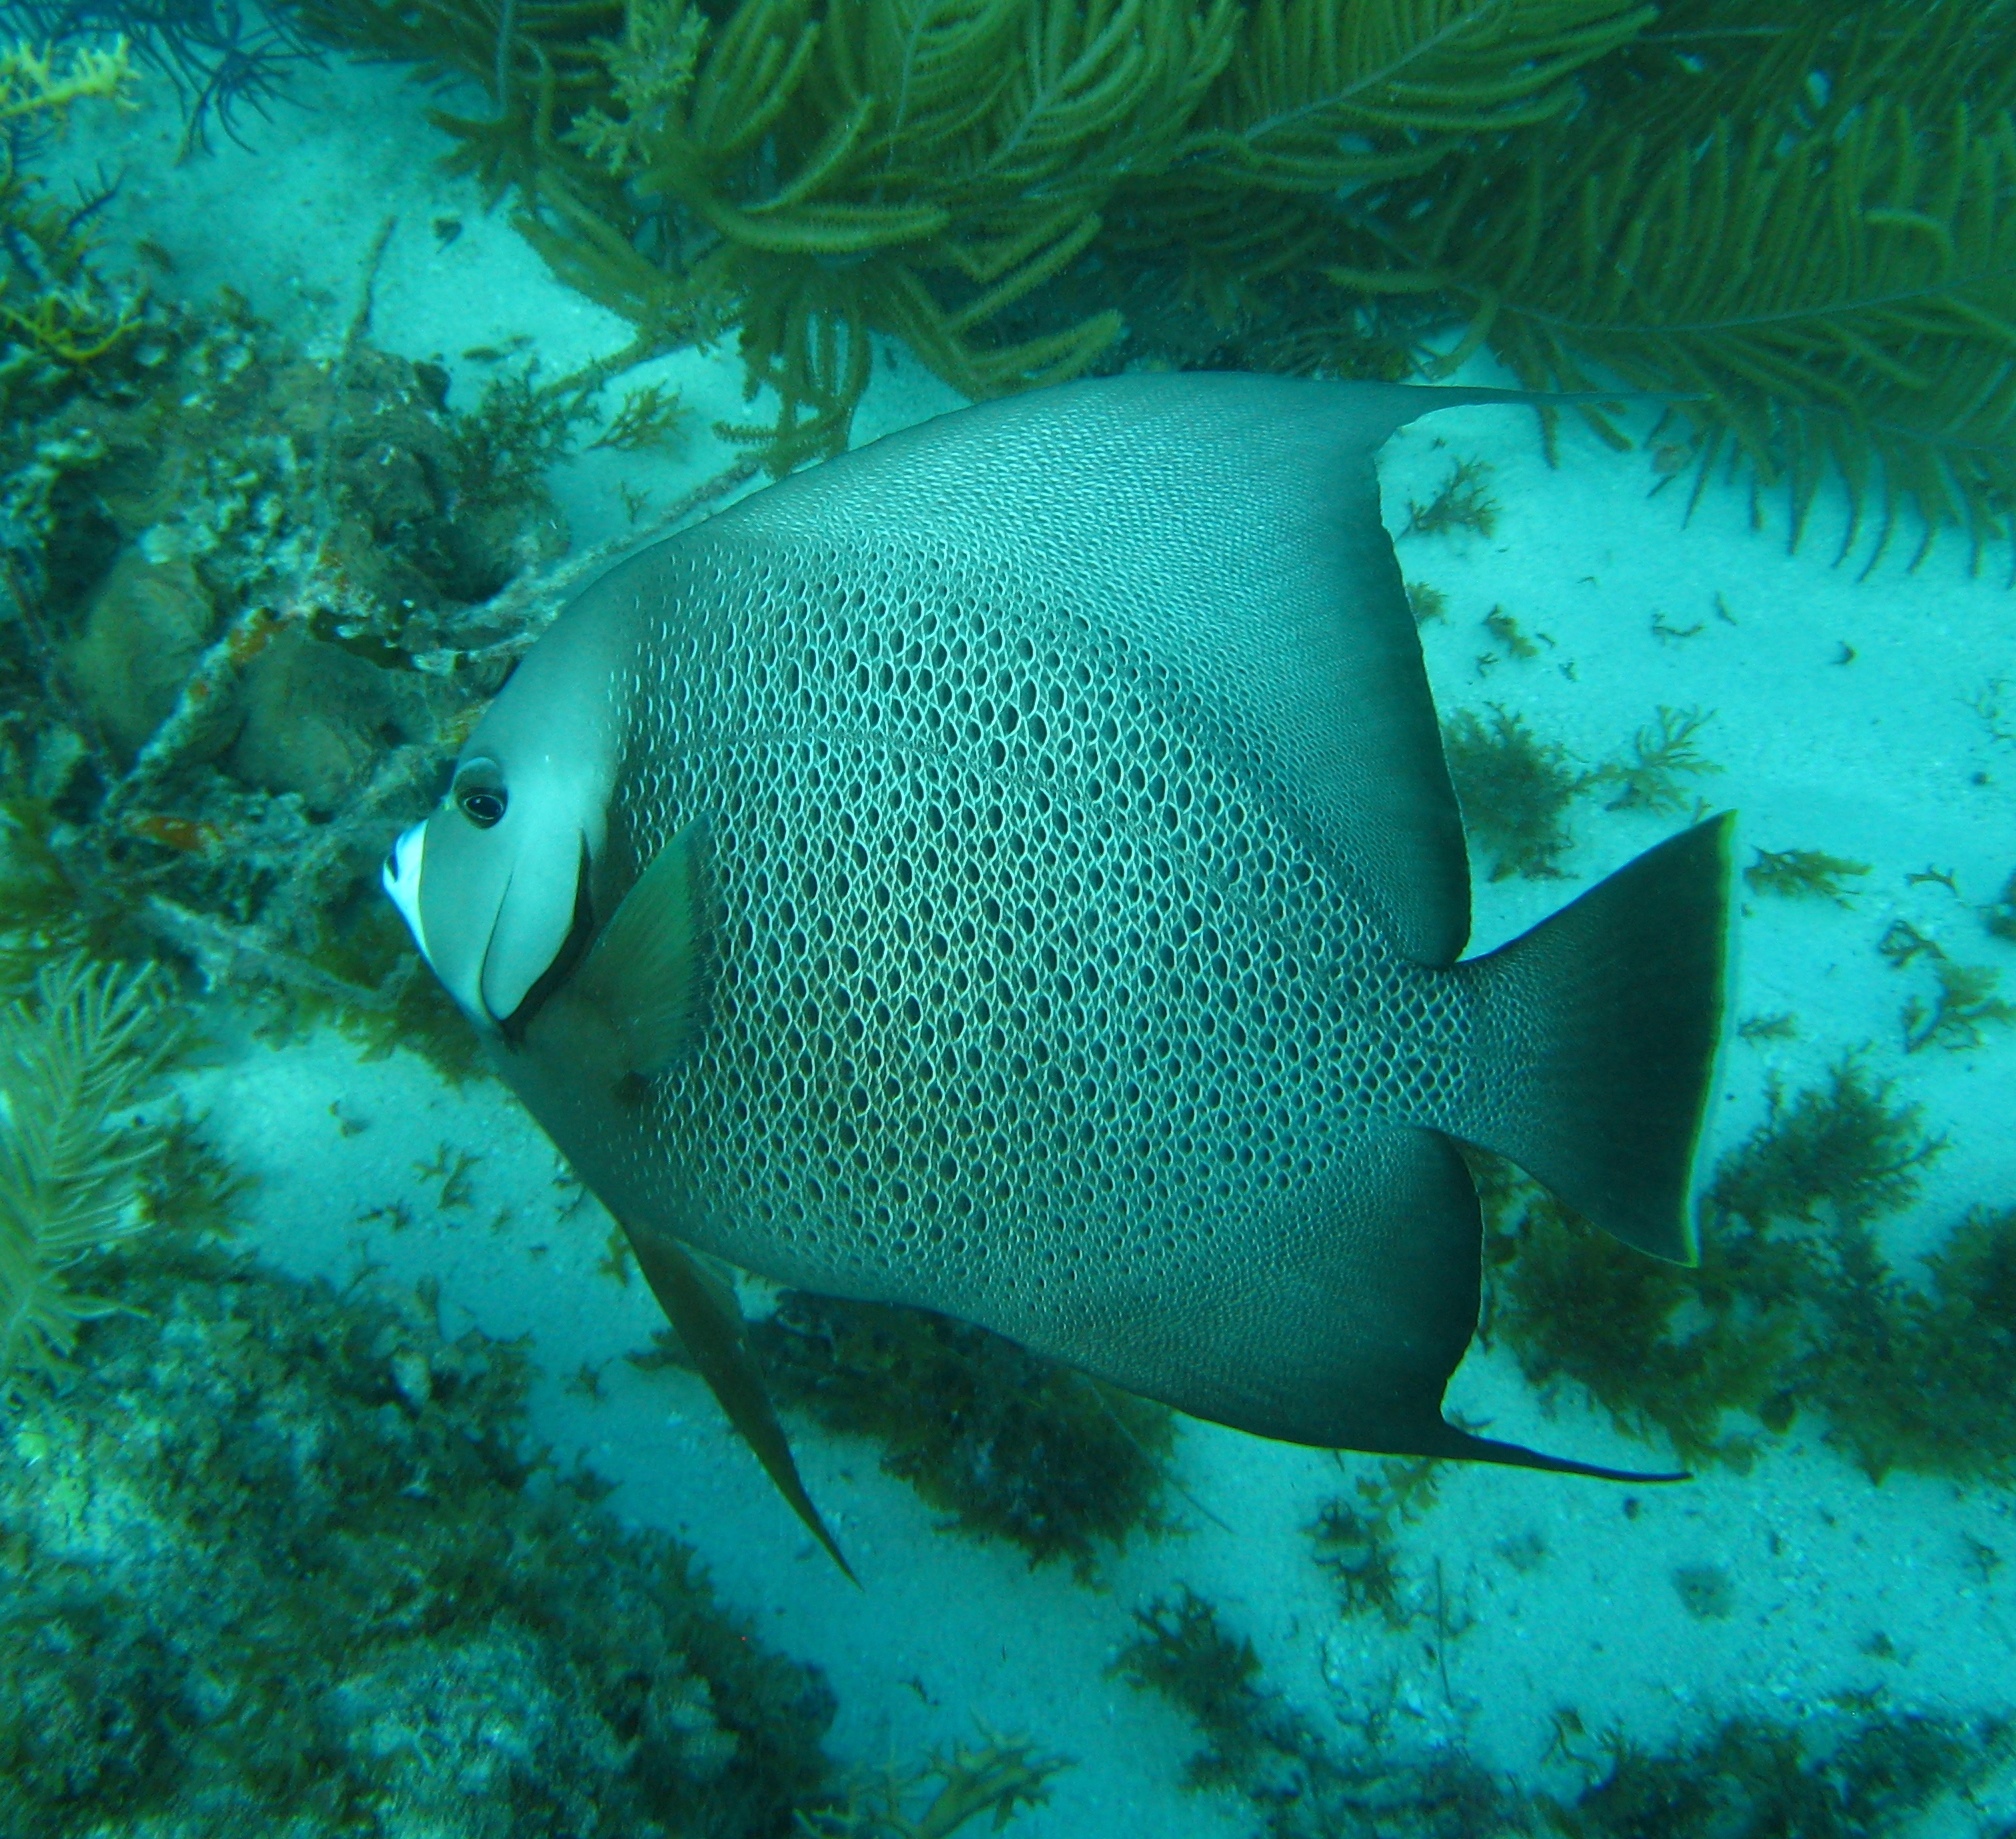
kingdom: Animalia
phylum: Chordata
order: Perciformes
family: Pomacanthidae
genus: Pomacanthus
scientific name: Pomacanthus arcuatus
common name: Gray angelfish
